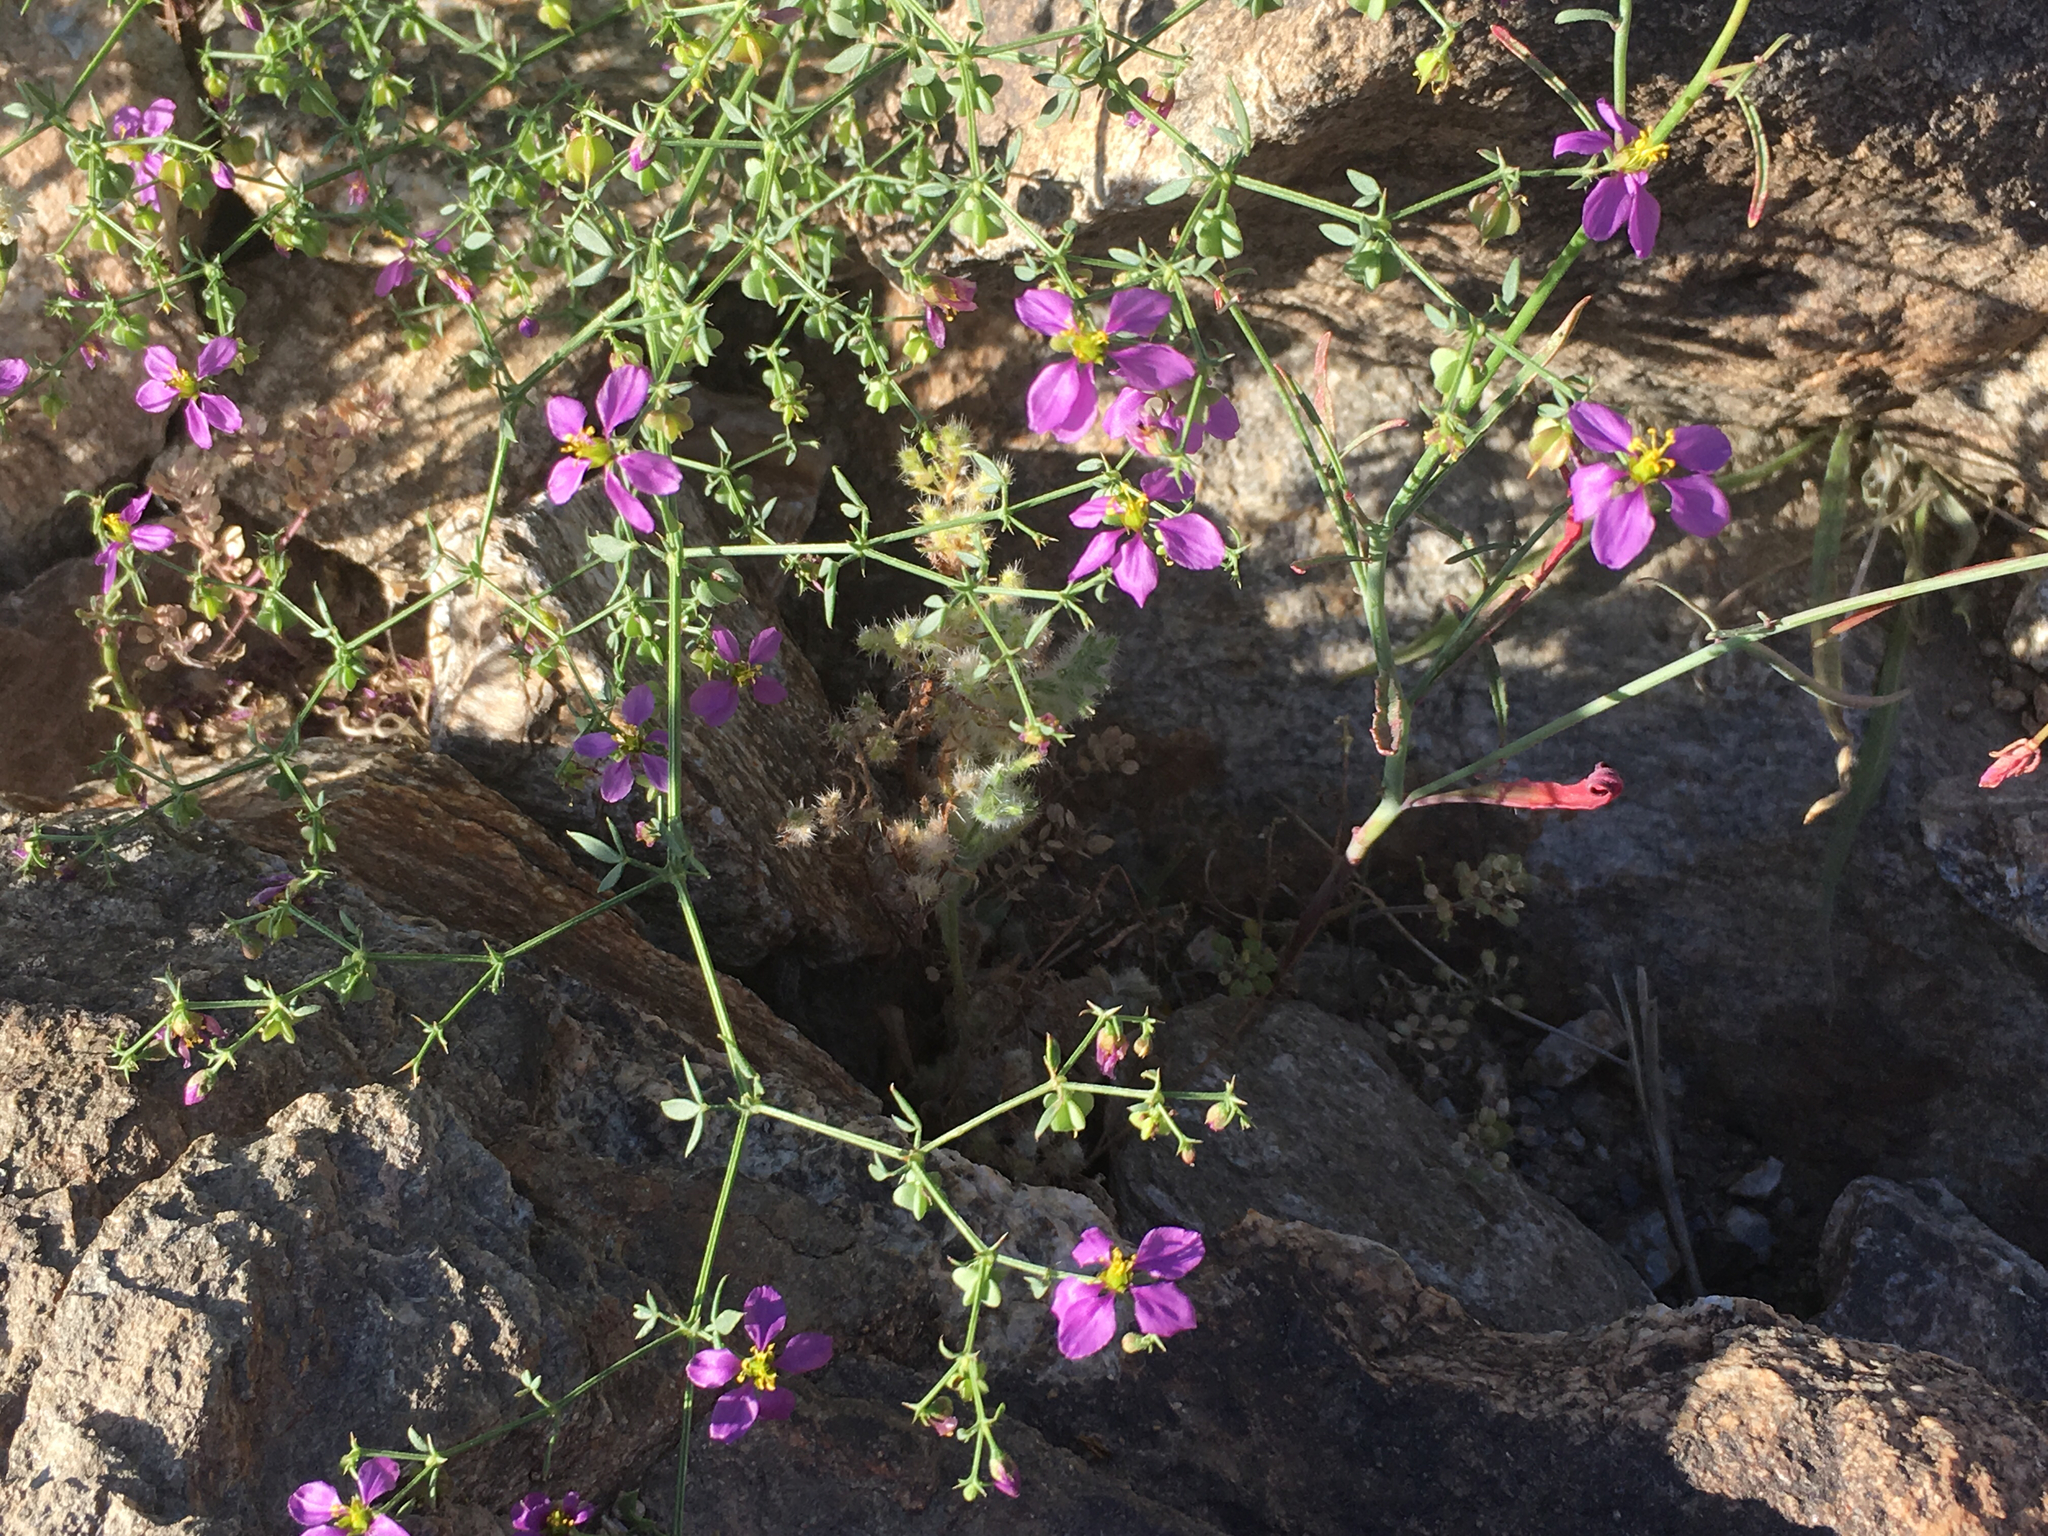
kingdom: Plantae
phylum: Tracheophyta
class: Magnoliopsida
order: Zygophyllales
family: Zygophyllaceae
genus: Fagonia
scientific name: Fagonia laevis
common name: California fagonbush
